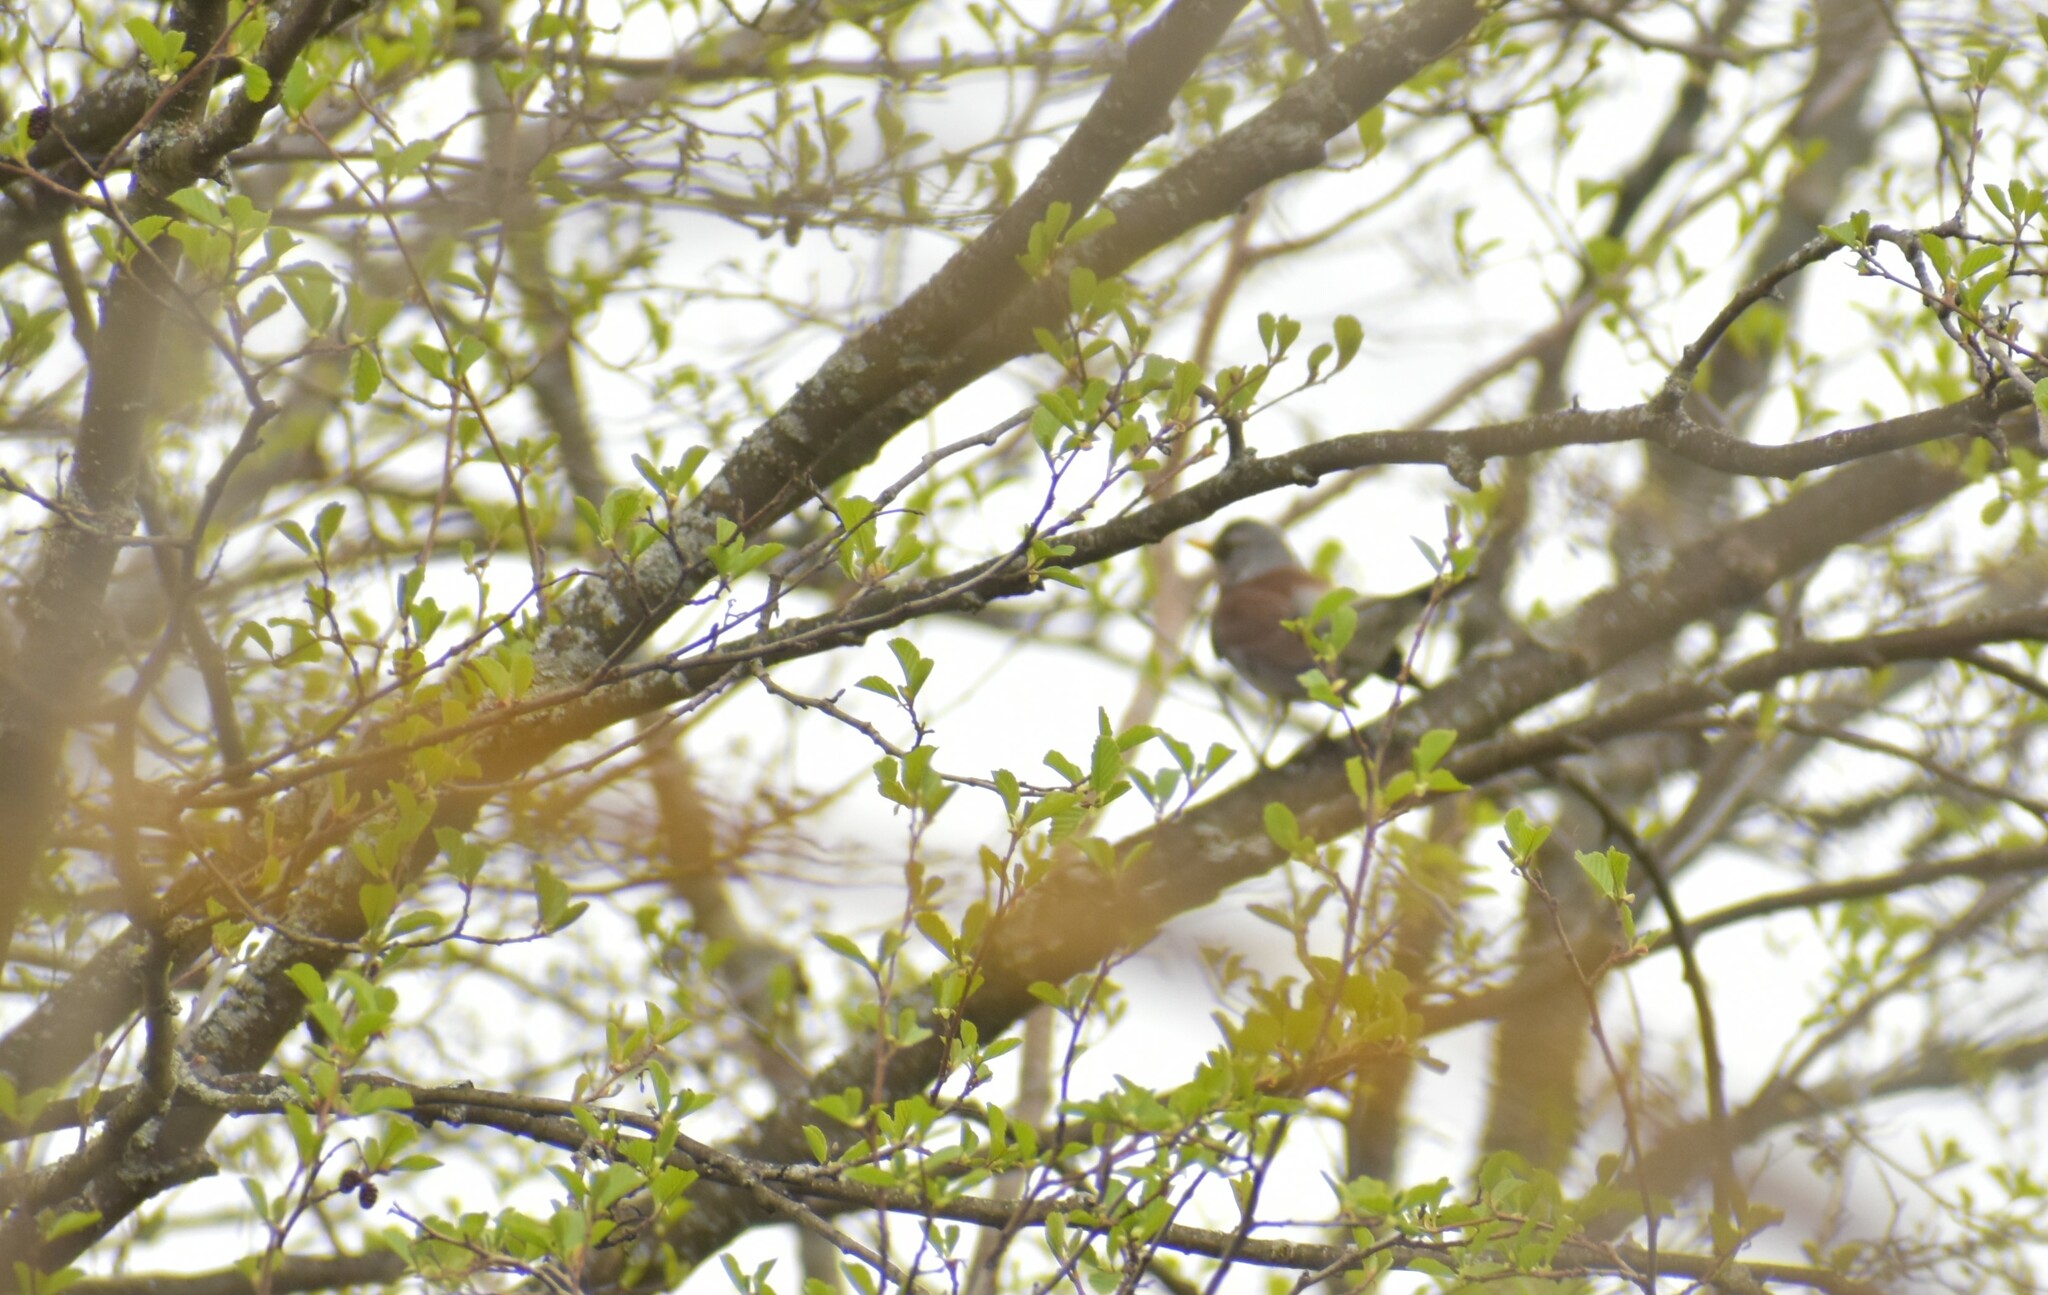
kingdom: Animalia
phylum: Chordata
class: Aves
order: Passeriformes
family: Turdidae
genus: Turdus
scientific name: Turdus pilaris
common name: Fieldfare
